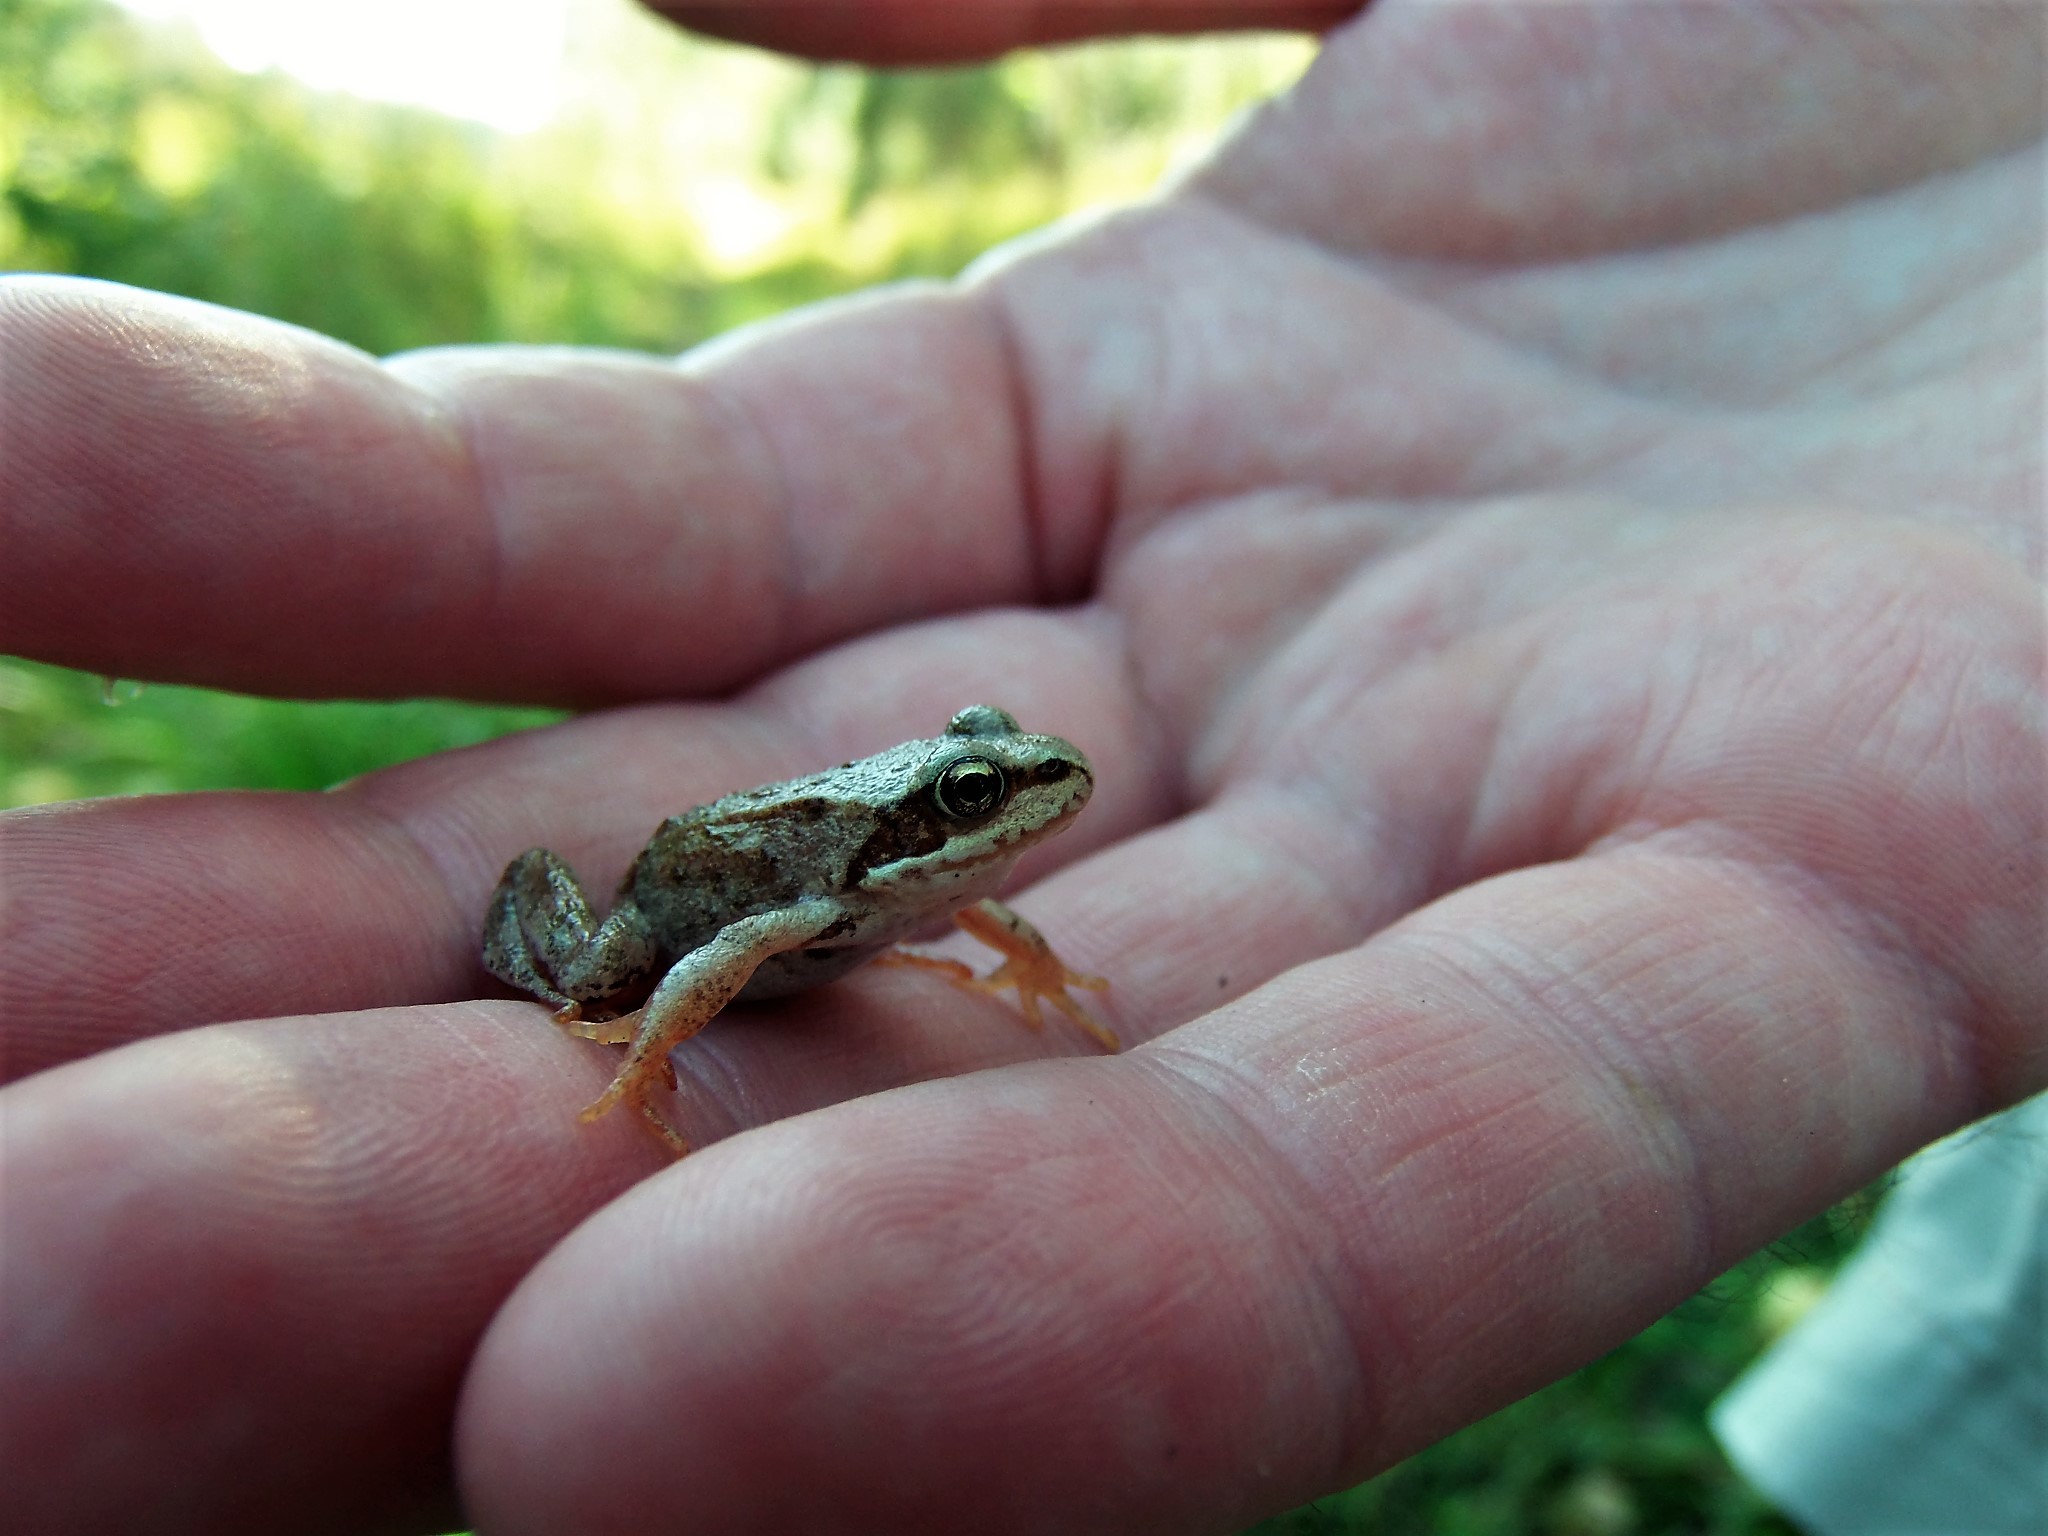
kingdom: Animalia
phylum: Chordata
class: Amphibia
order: Anura
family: Ranidae
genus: Rana
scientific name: Rana temporaria
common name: Common frog
